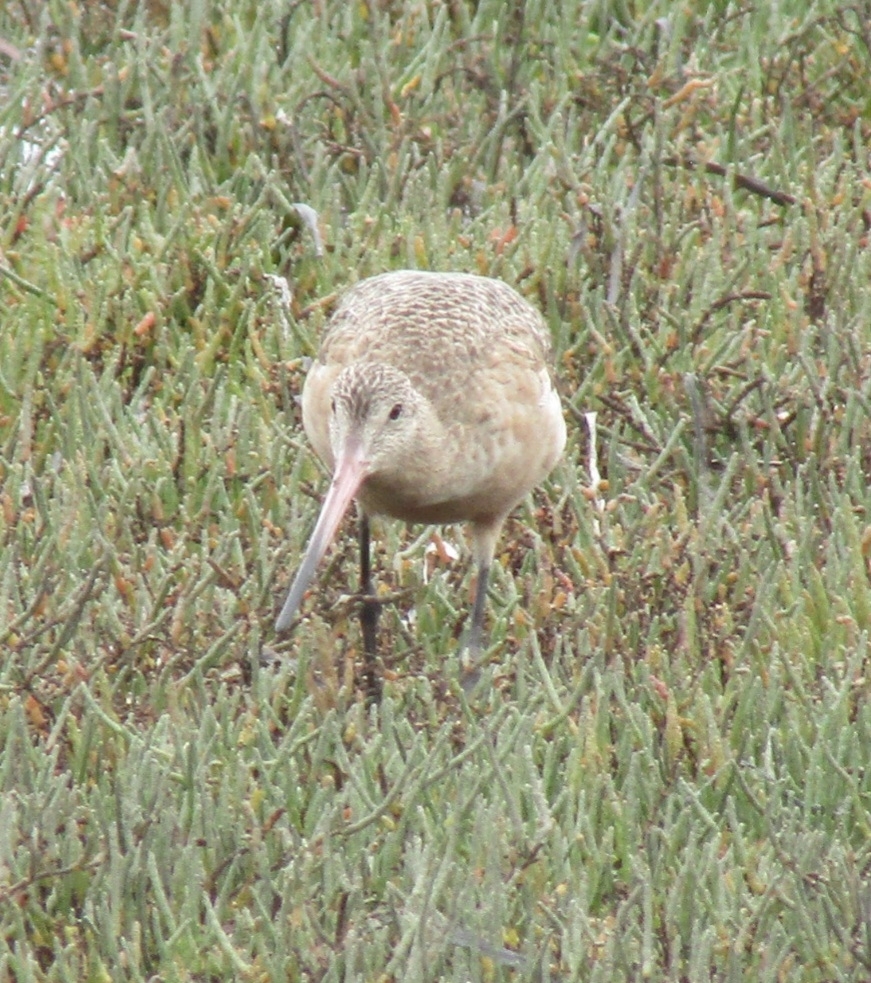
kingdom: Animalia
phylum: Chordata
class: Aves
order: Charadriiformes
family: Scolopacidae
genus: Limosa
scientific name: Limosa fedoa
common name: Marbled godwit
